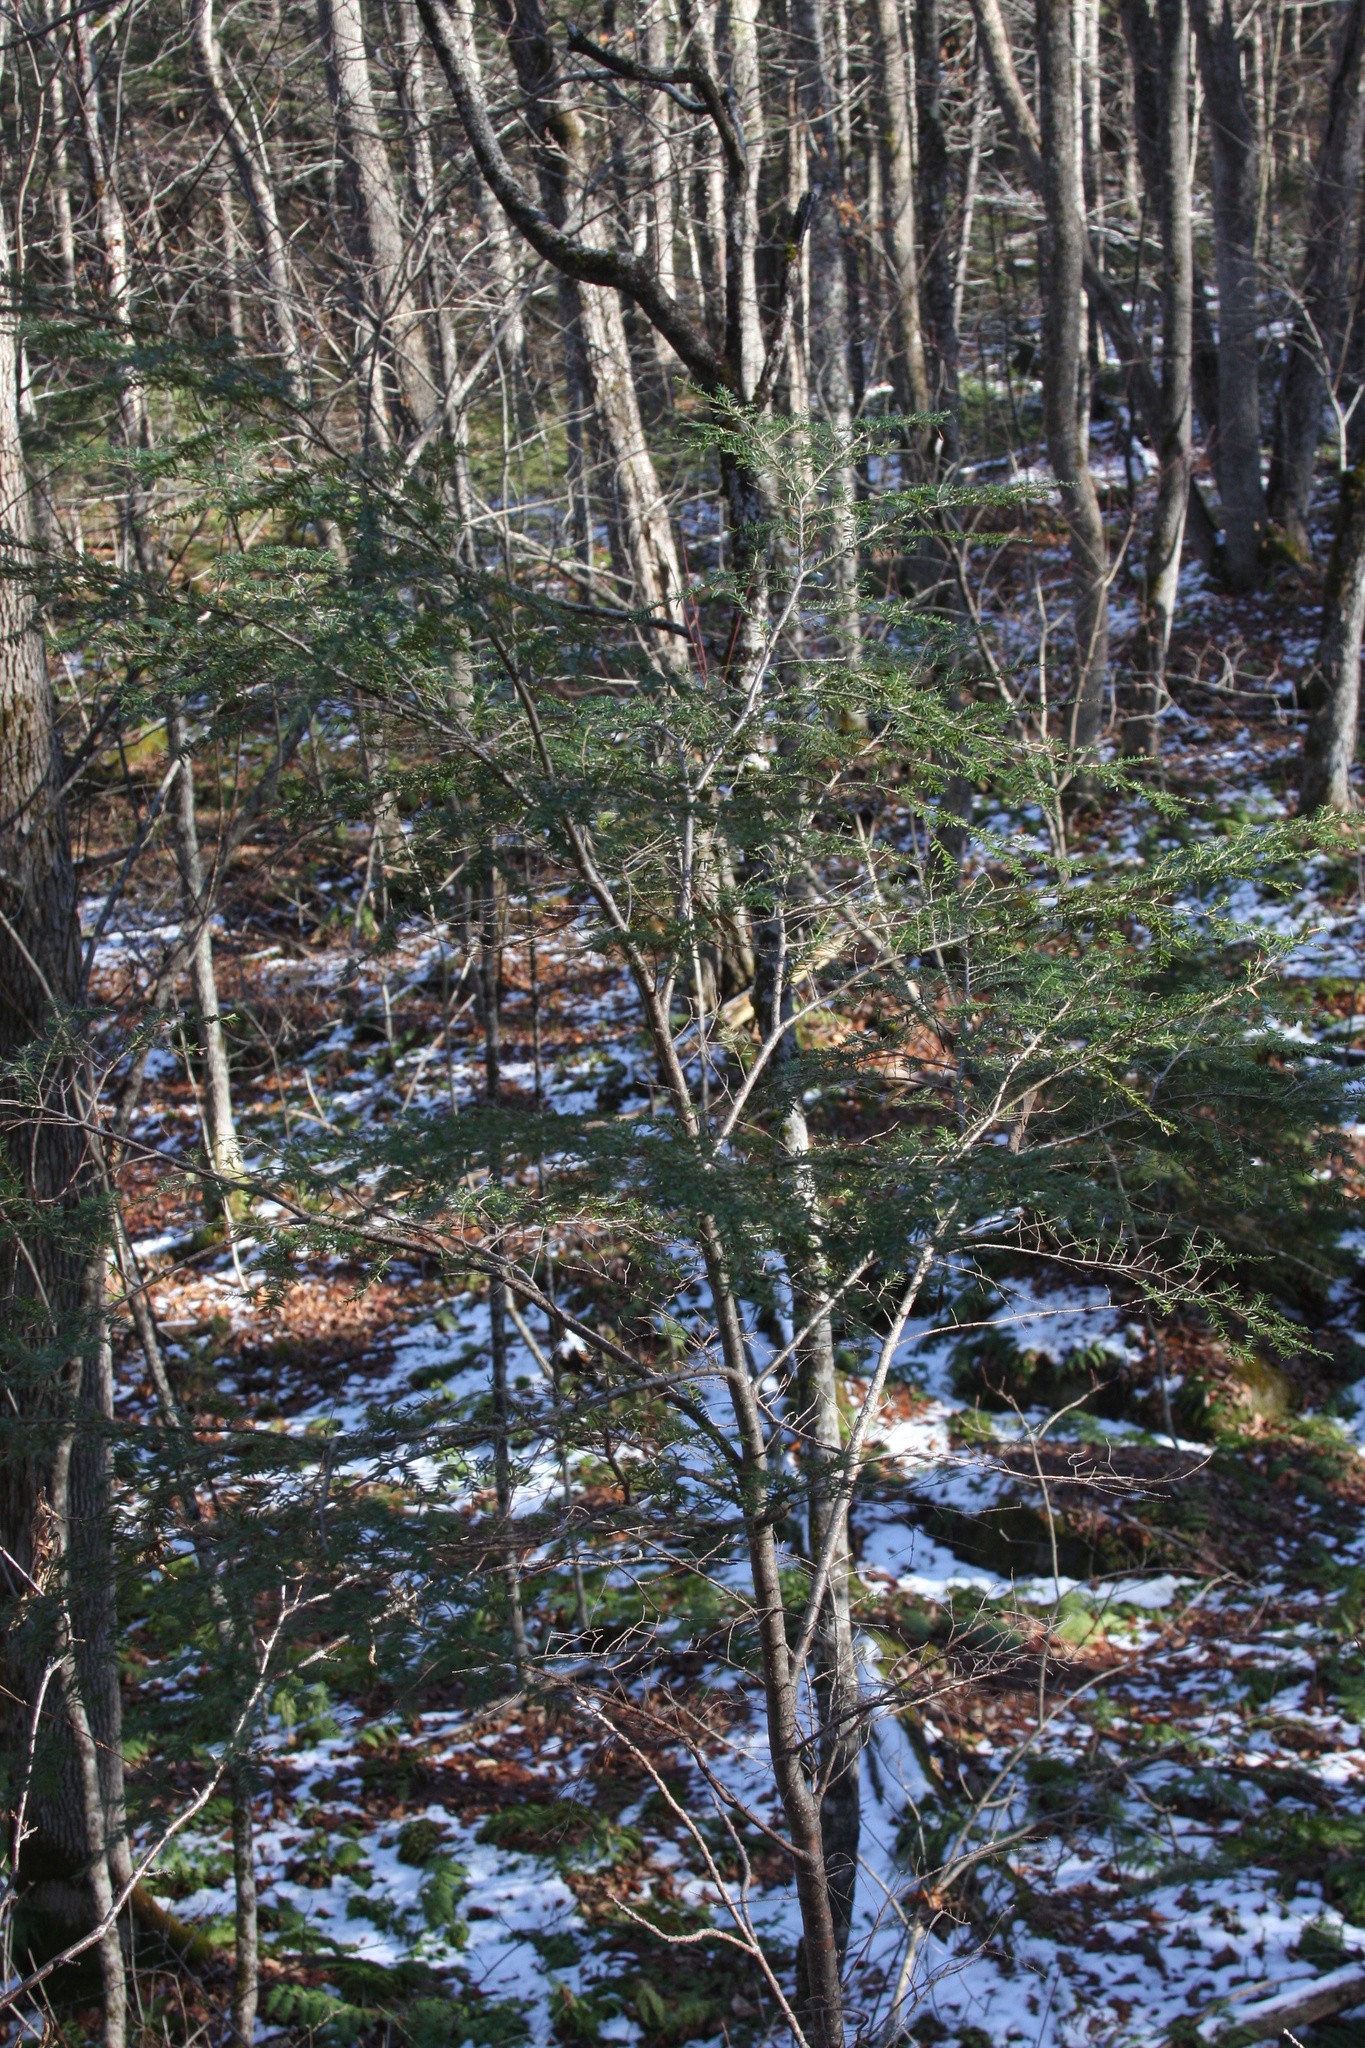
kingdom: Plantae
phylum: Tracheophyta
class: Pinopsida
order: Pinales
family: Pinaceae
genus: Tsuga
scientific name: Tsuga canadensis
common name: Eastern hemlock
